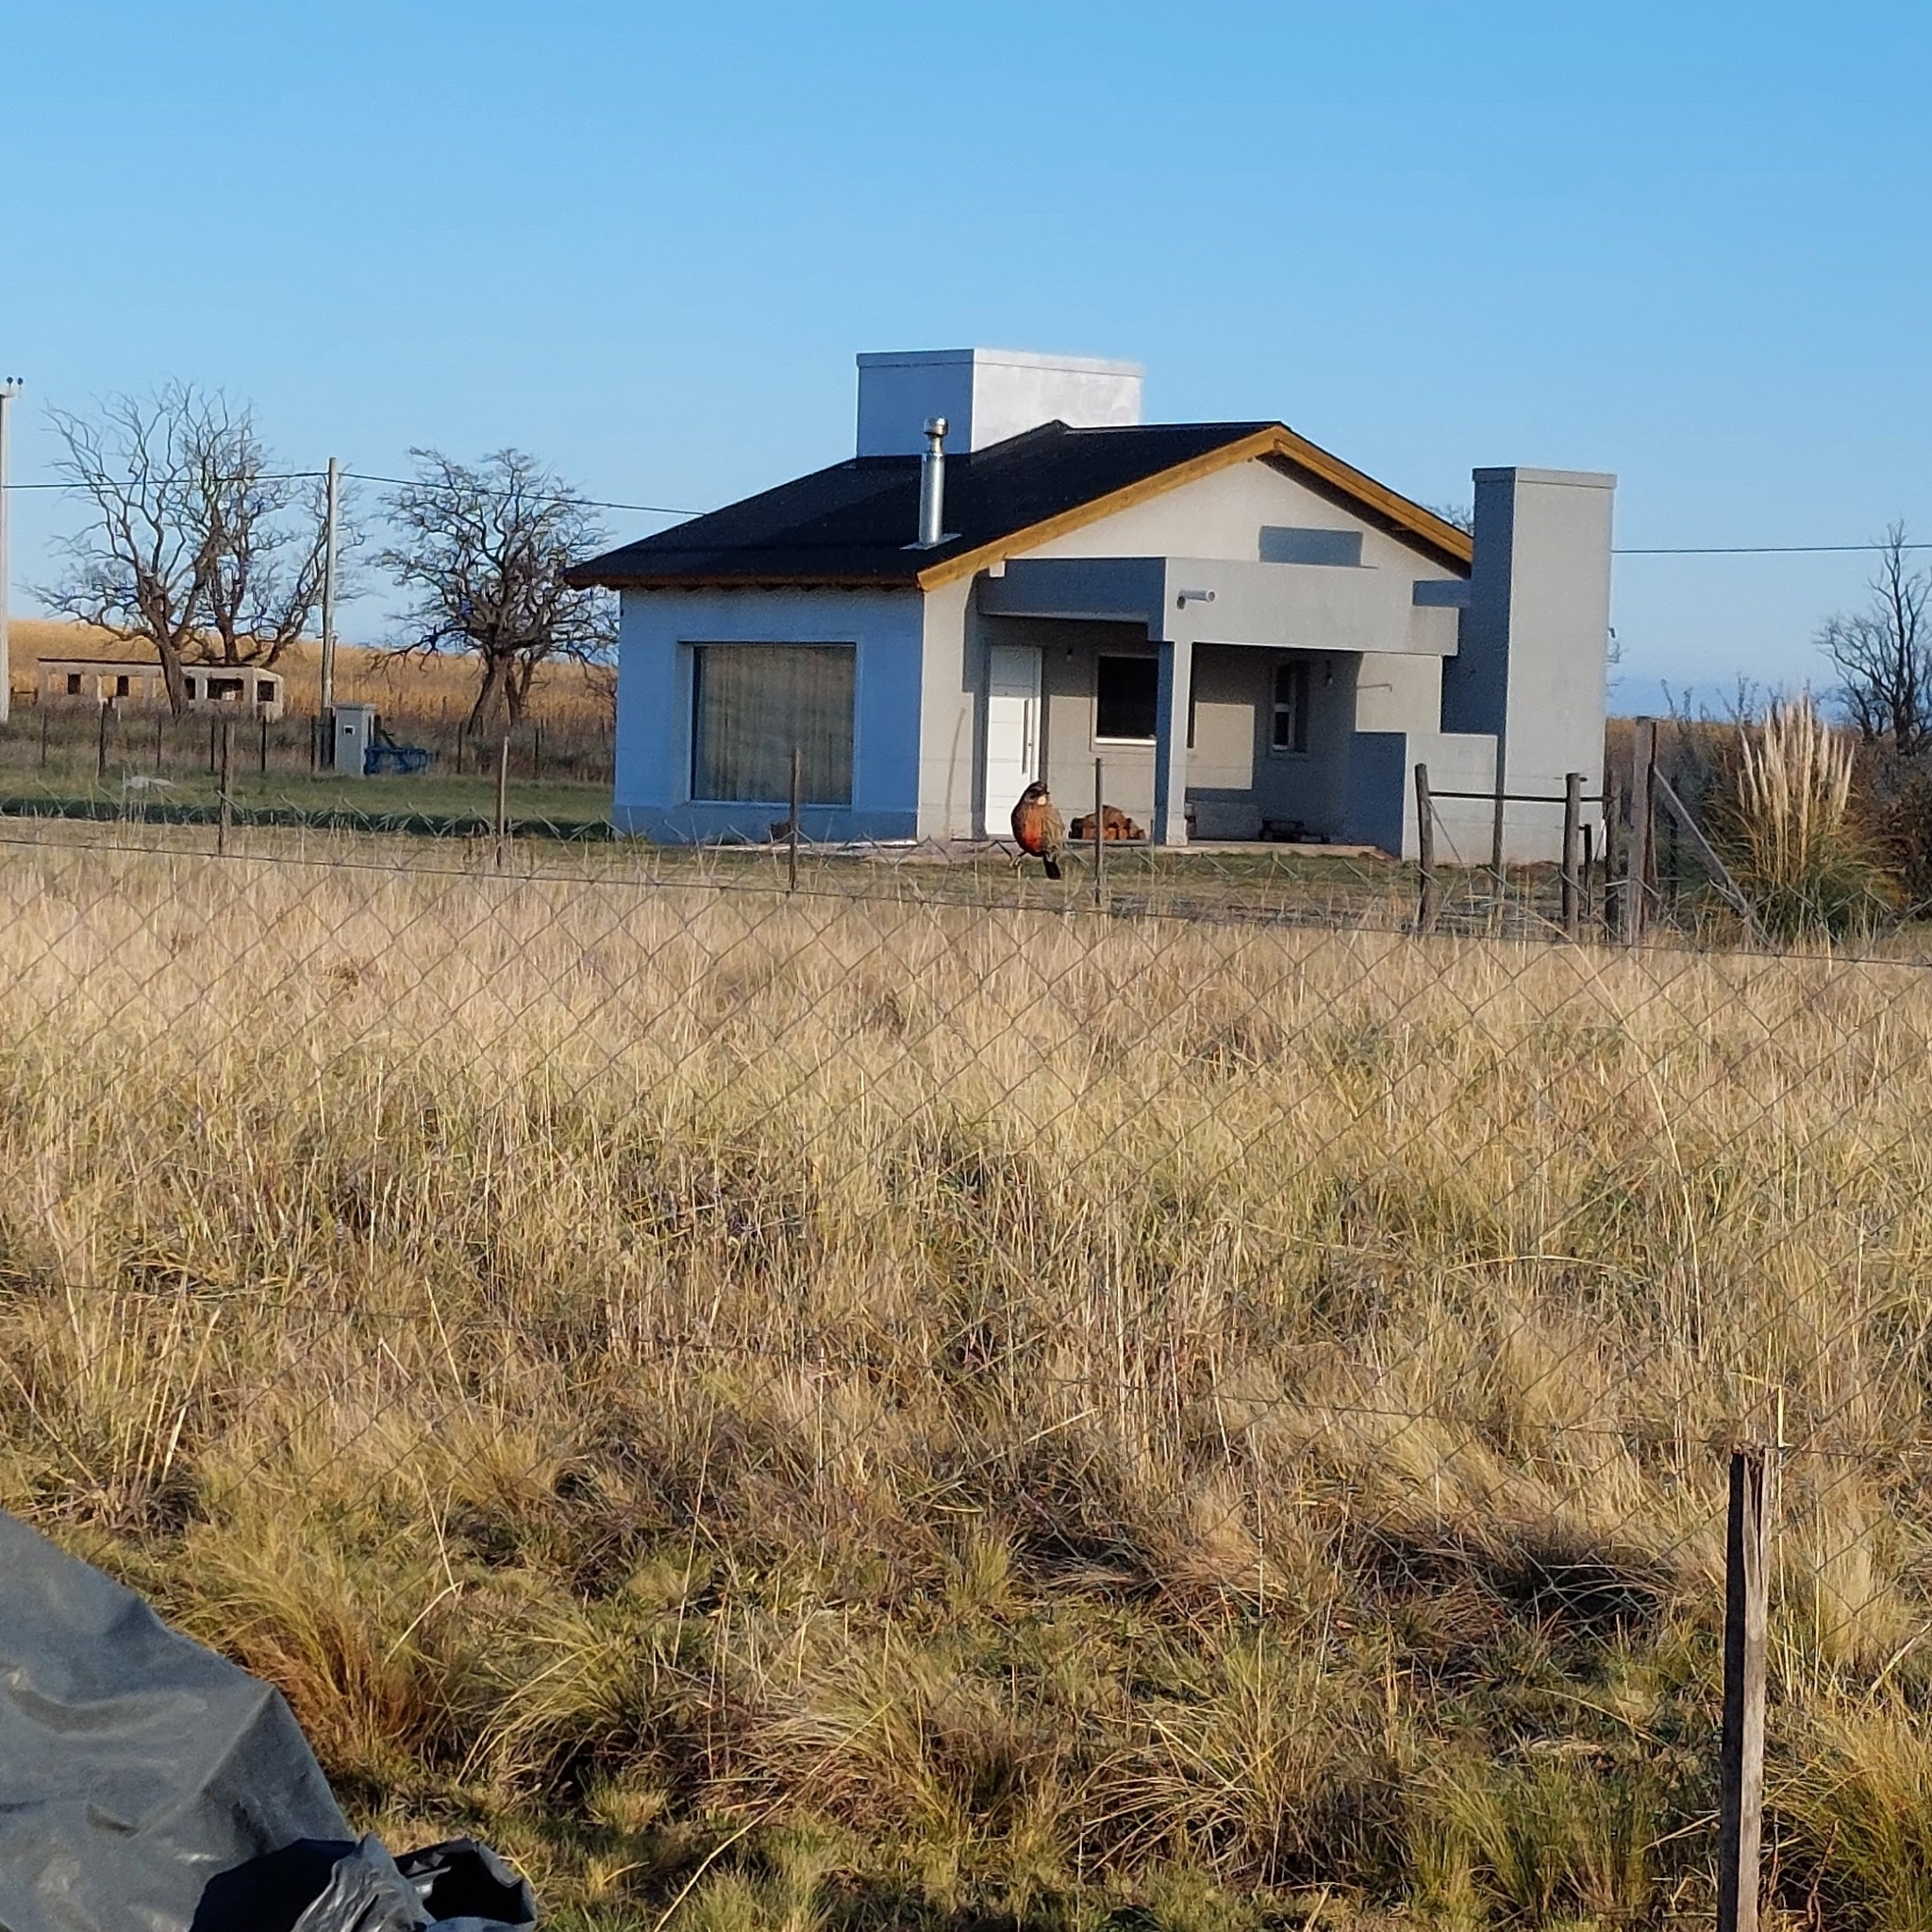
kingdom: Animalia
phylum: Chordata
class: Aves
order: Passeriformes
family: Icteridae
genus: Sturnella
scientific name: Sturnella loyca
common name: Long-tailed meadowlark
